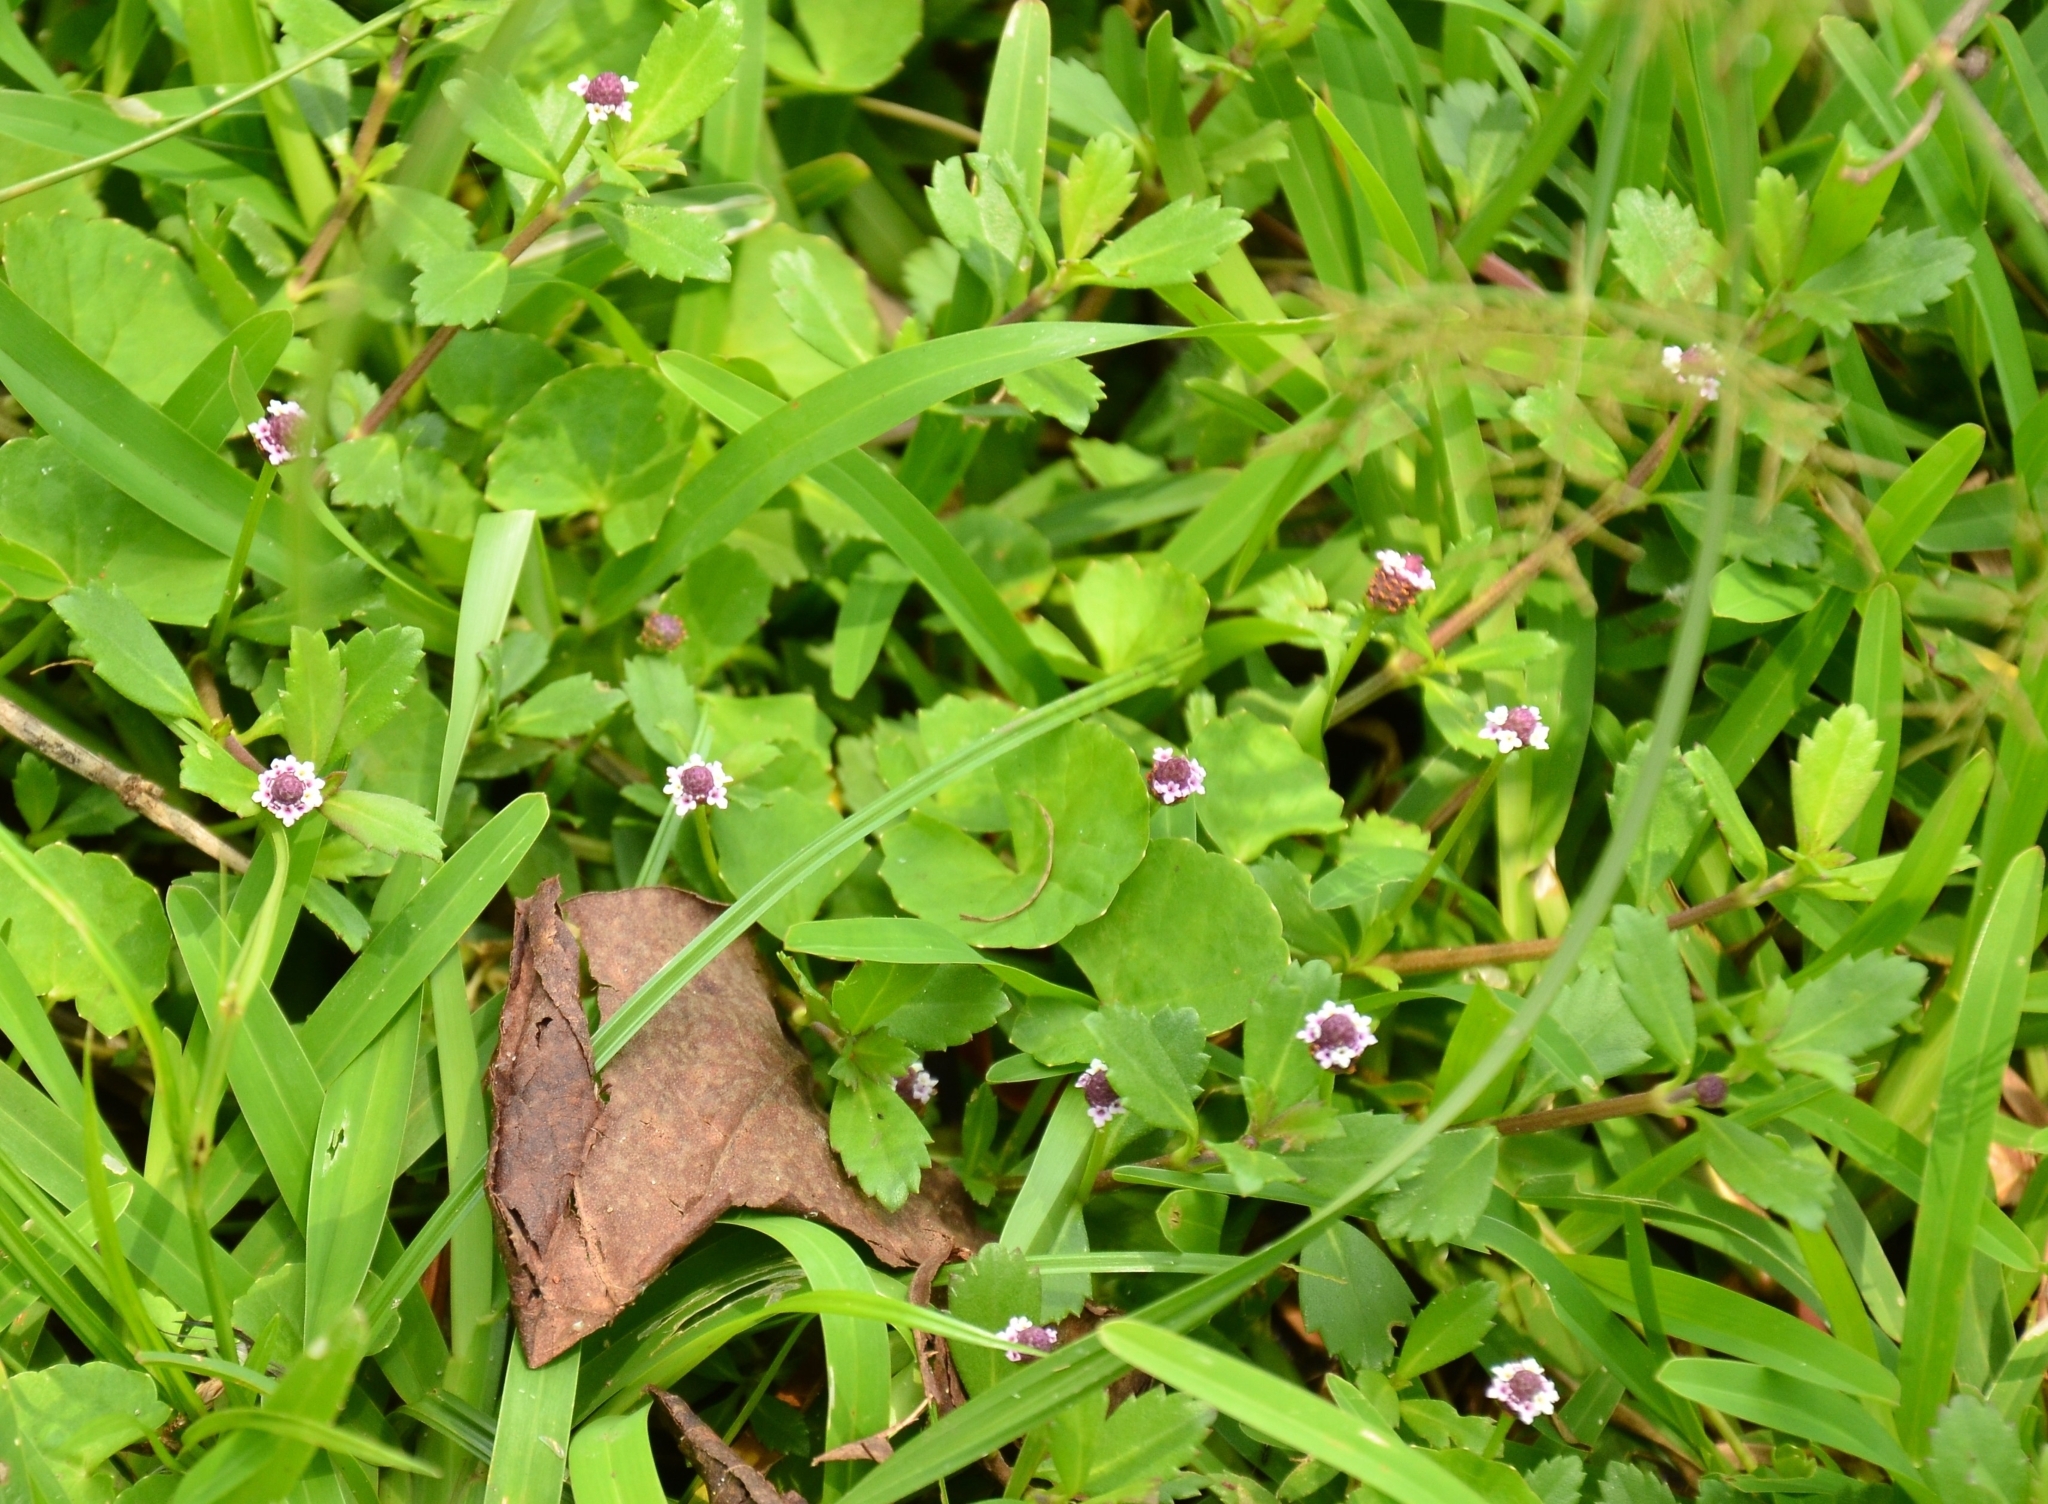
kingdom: Plantae
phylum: Tracheophyta
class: Magnoliopsida
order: Lamiales
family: Verbenaceae
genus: Phyla
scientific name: Phyla nodiflora
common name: Frogfruit
